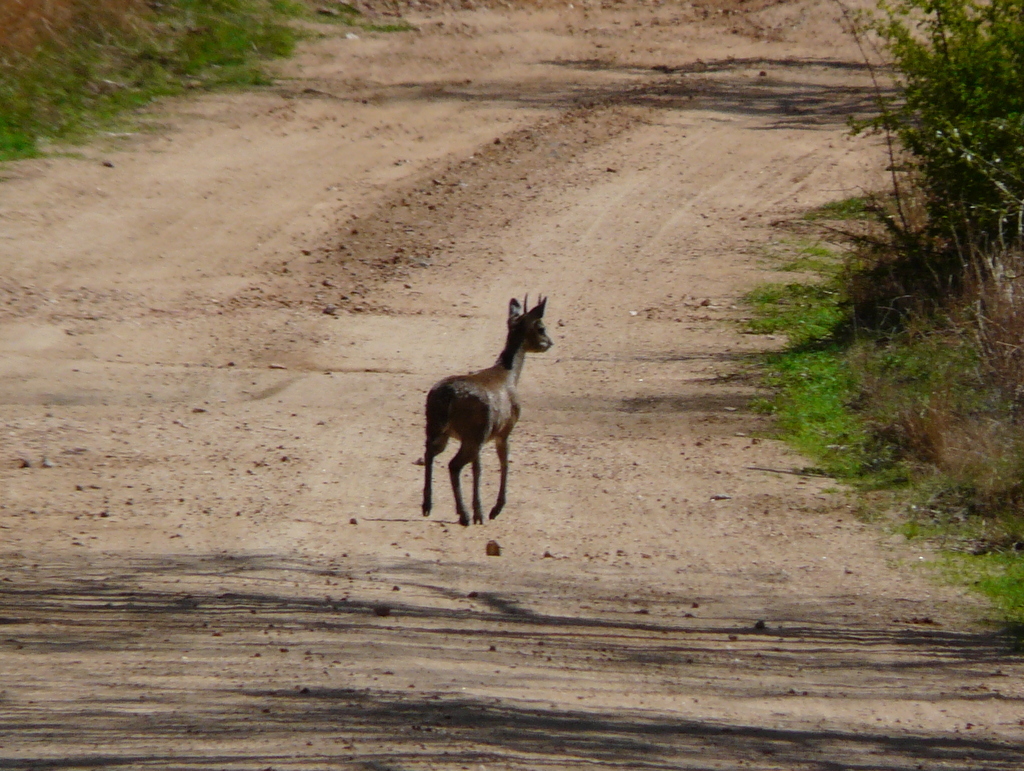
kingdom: Animalia
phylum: Chordata
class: Mammalia
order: Artiodactyla
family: Bovidae
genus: Oreotragus
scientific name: Oreotragus oreotragus
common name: Klipspringer
